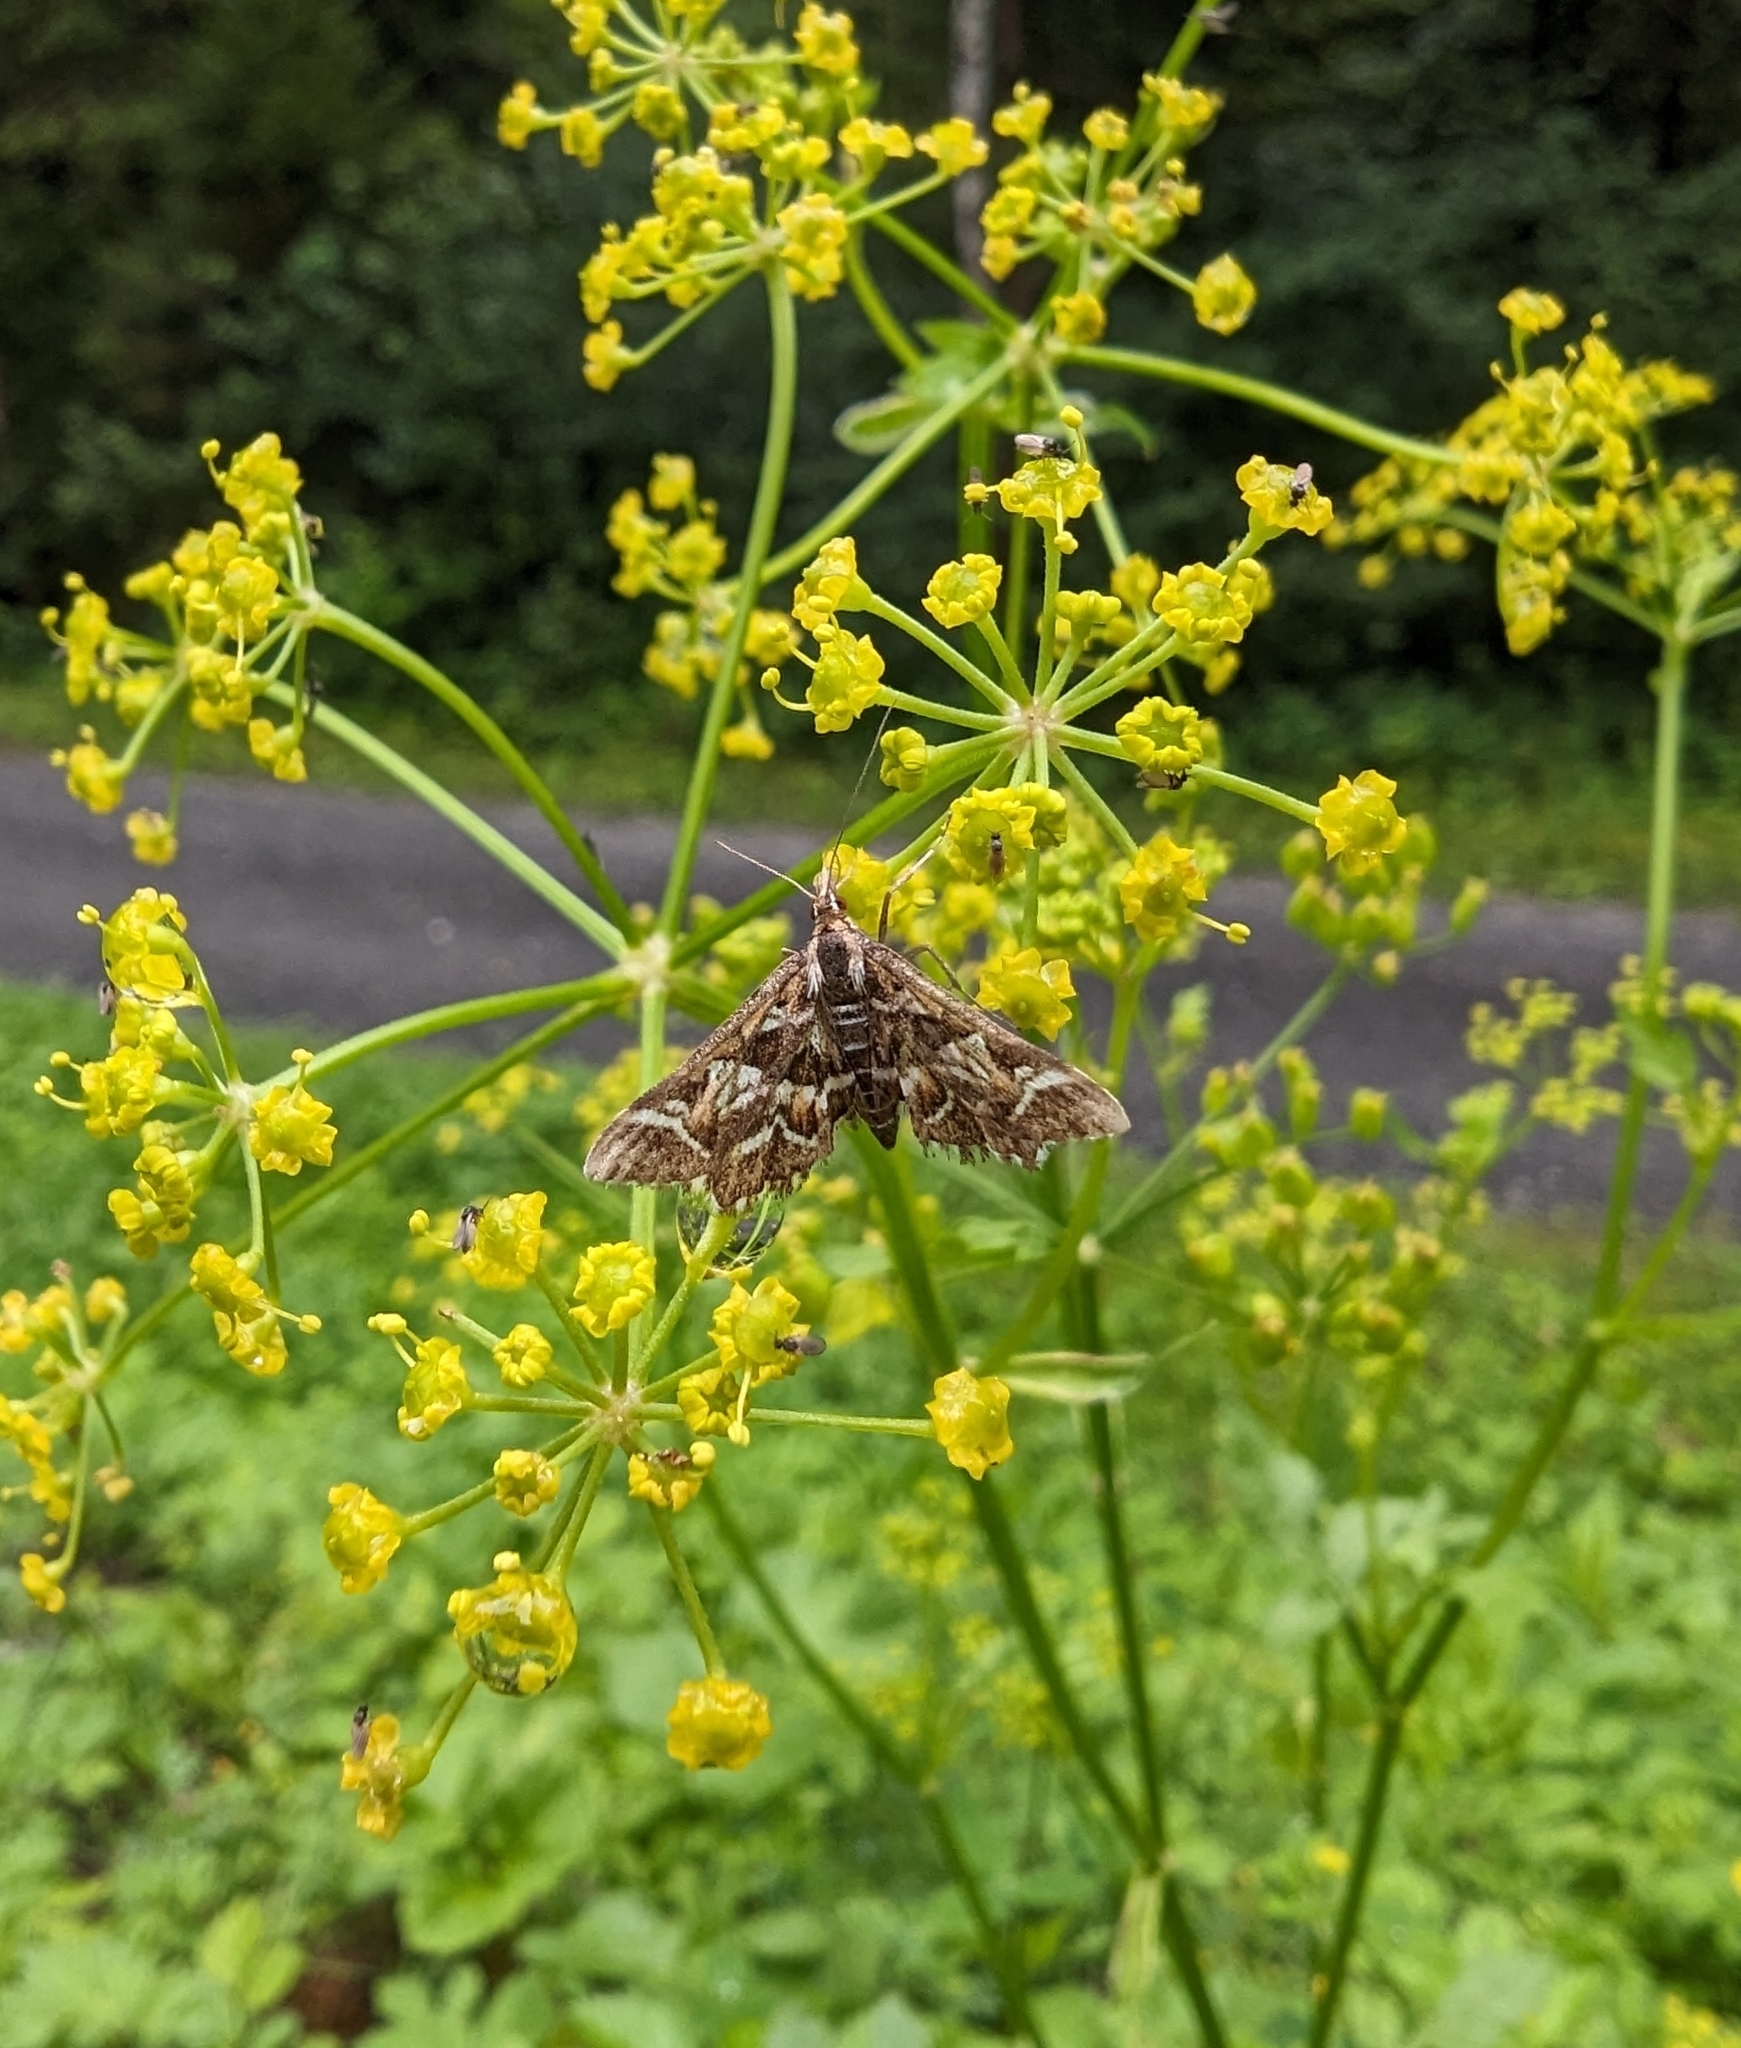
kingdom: Animalia
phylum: Arthropoda
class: Insecta
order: Lepidoptera
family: Crambidae
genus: Diasemia
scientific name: Diasemia reticularis
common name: Lettered china-mark
